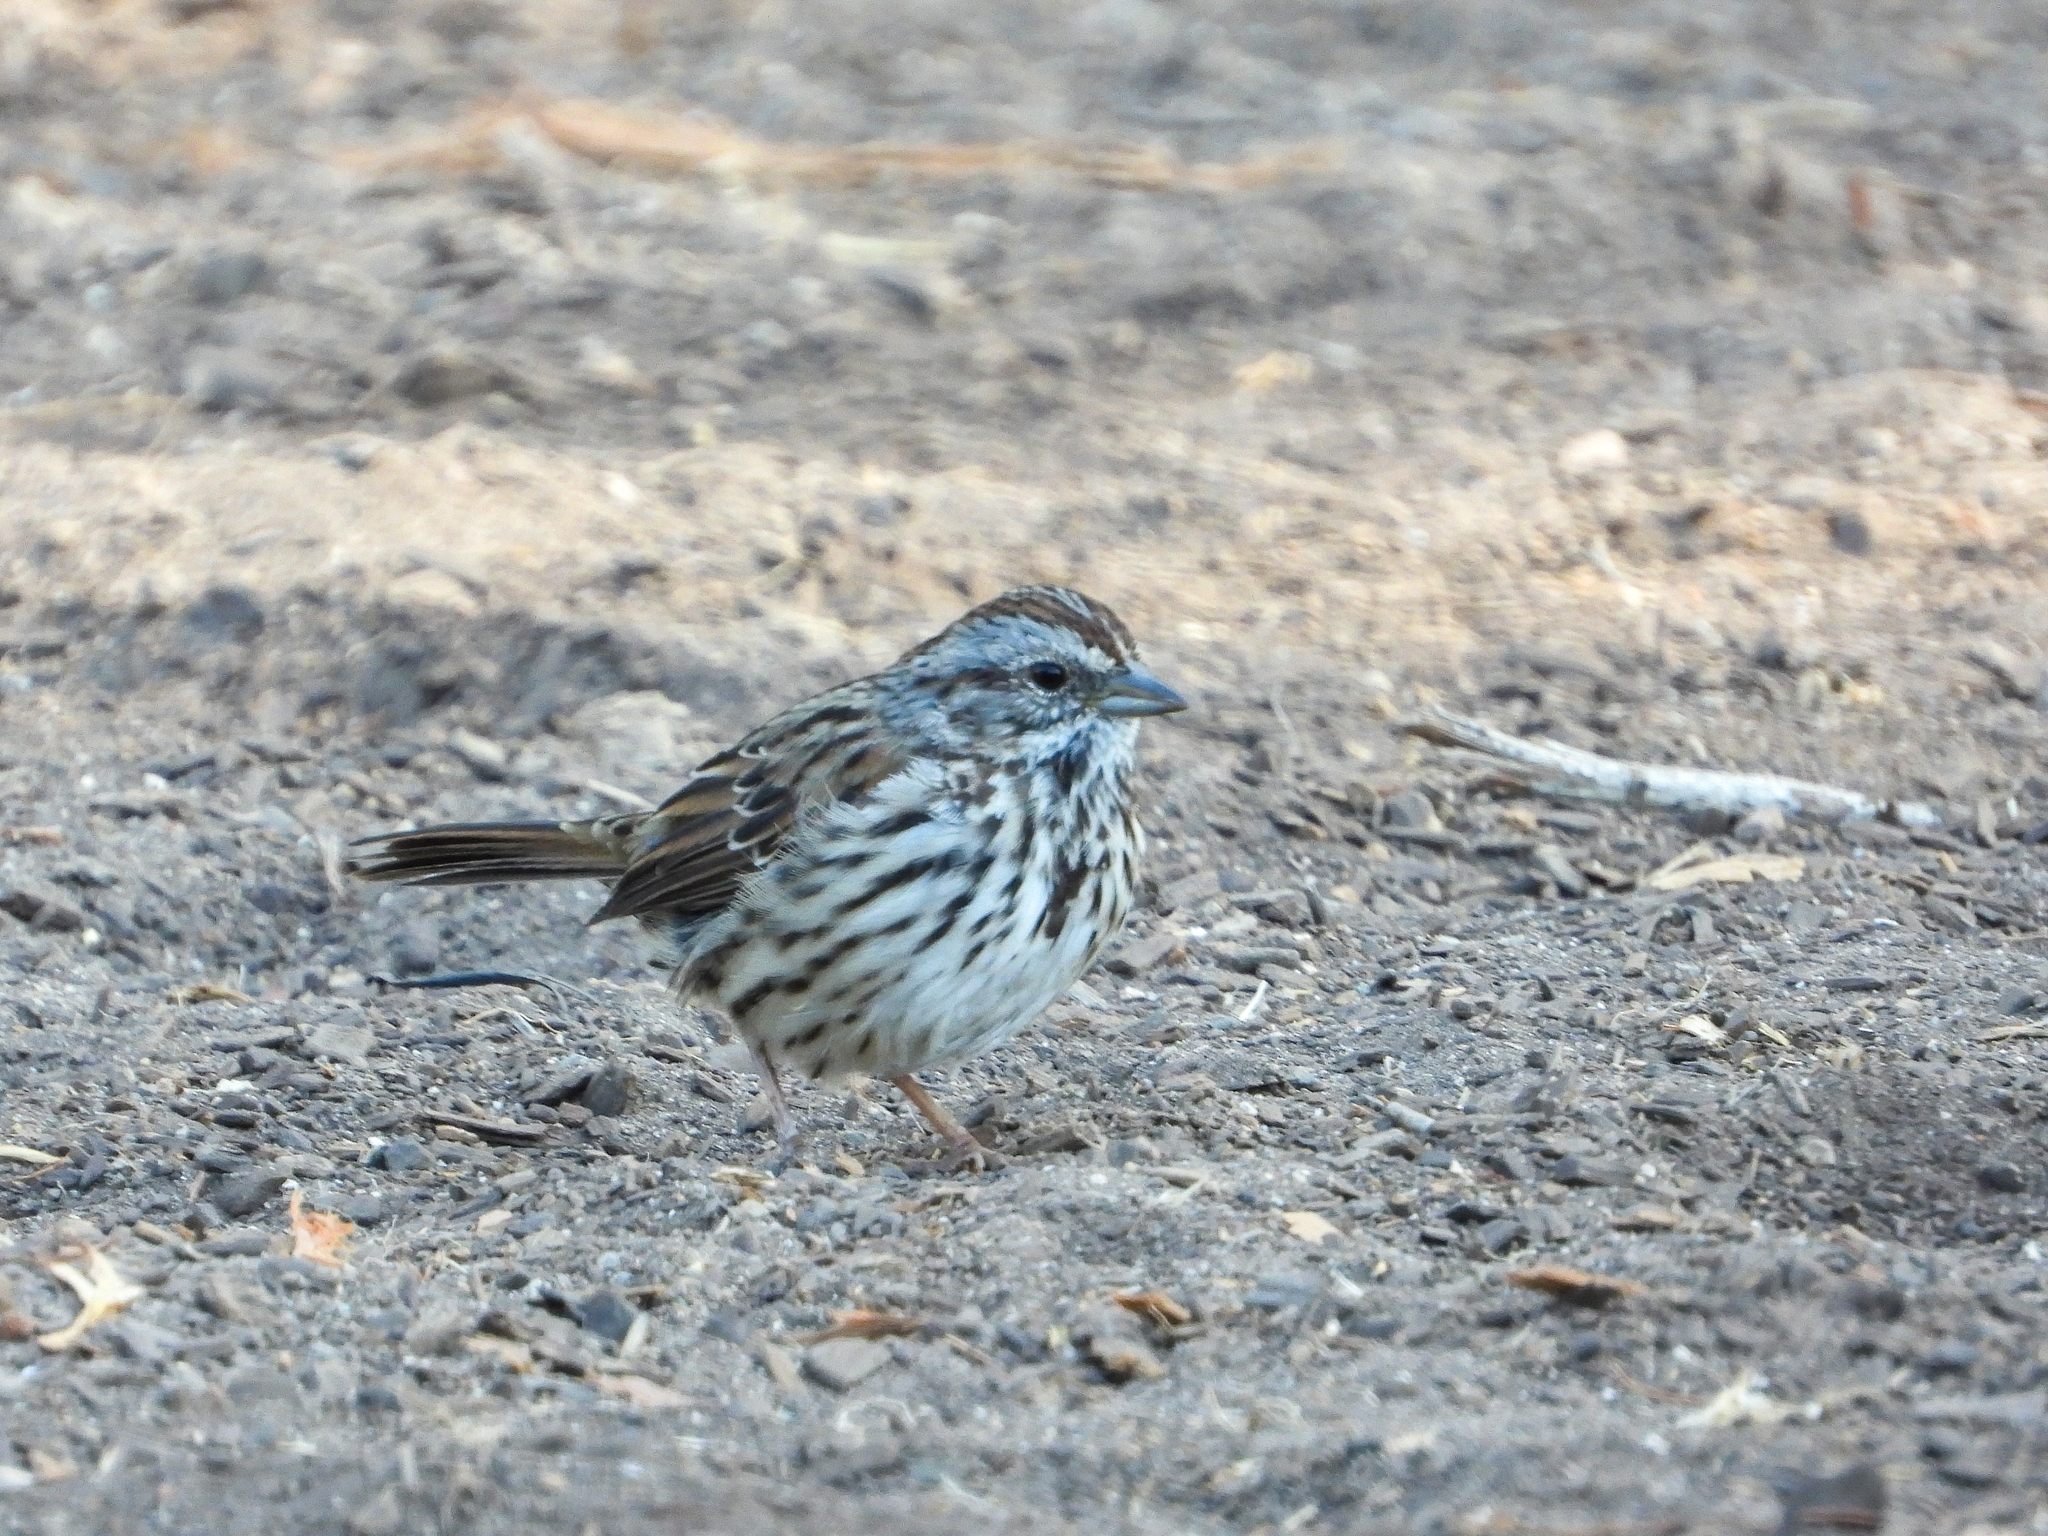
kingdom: Animalia
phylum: Chordata
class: Aves
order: Passeriformes
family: Passerellidae
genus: Melospiza
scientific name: Melospiza melodia
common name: Song sparrow
